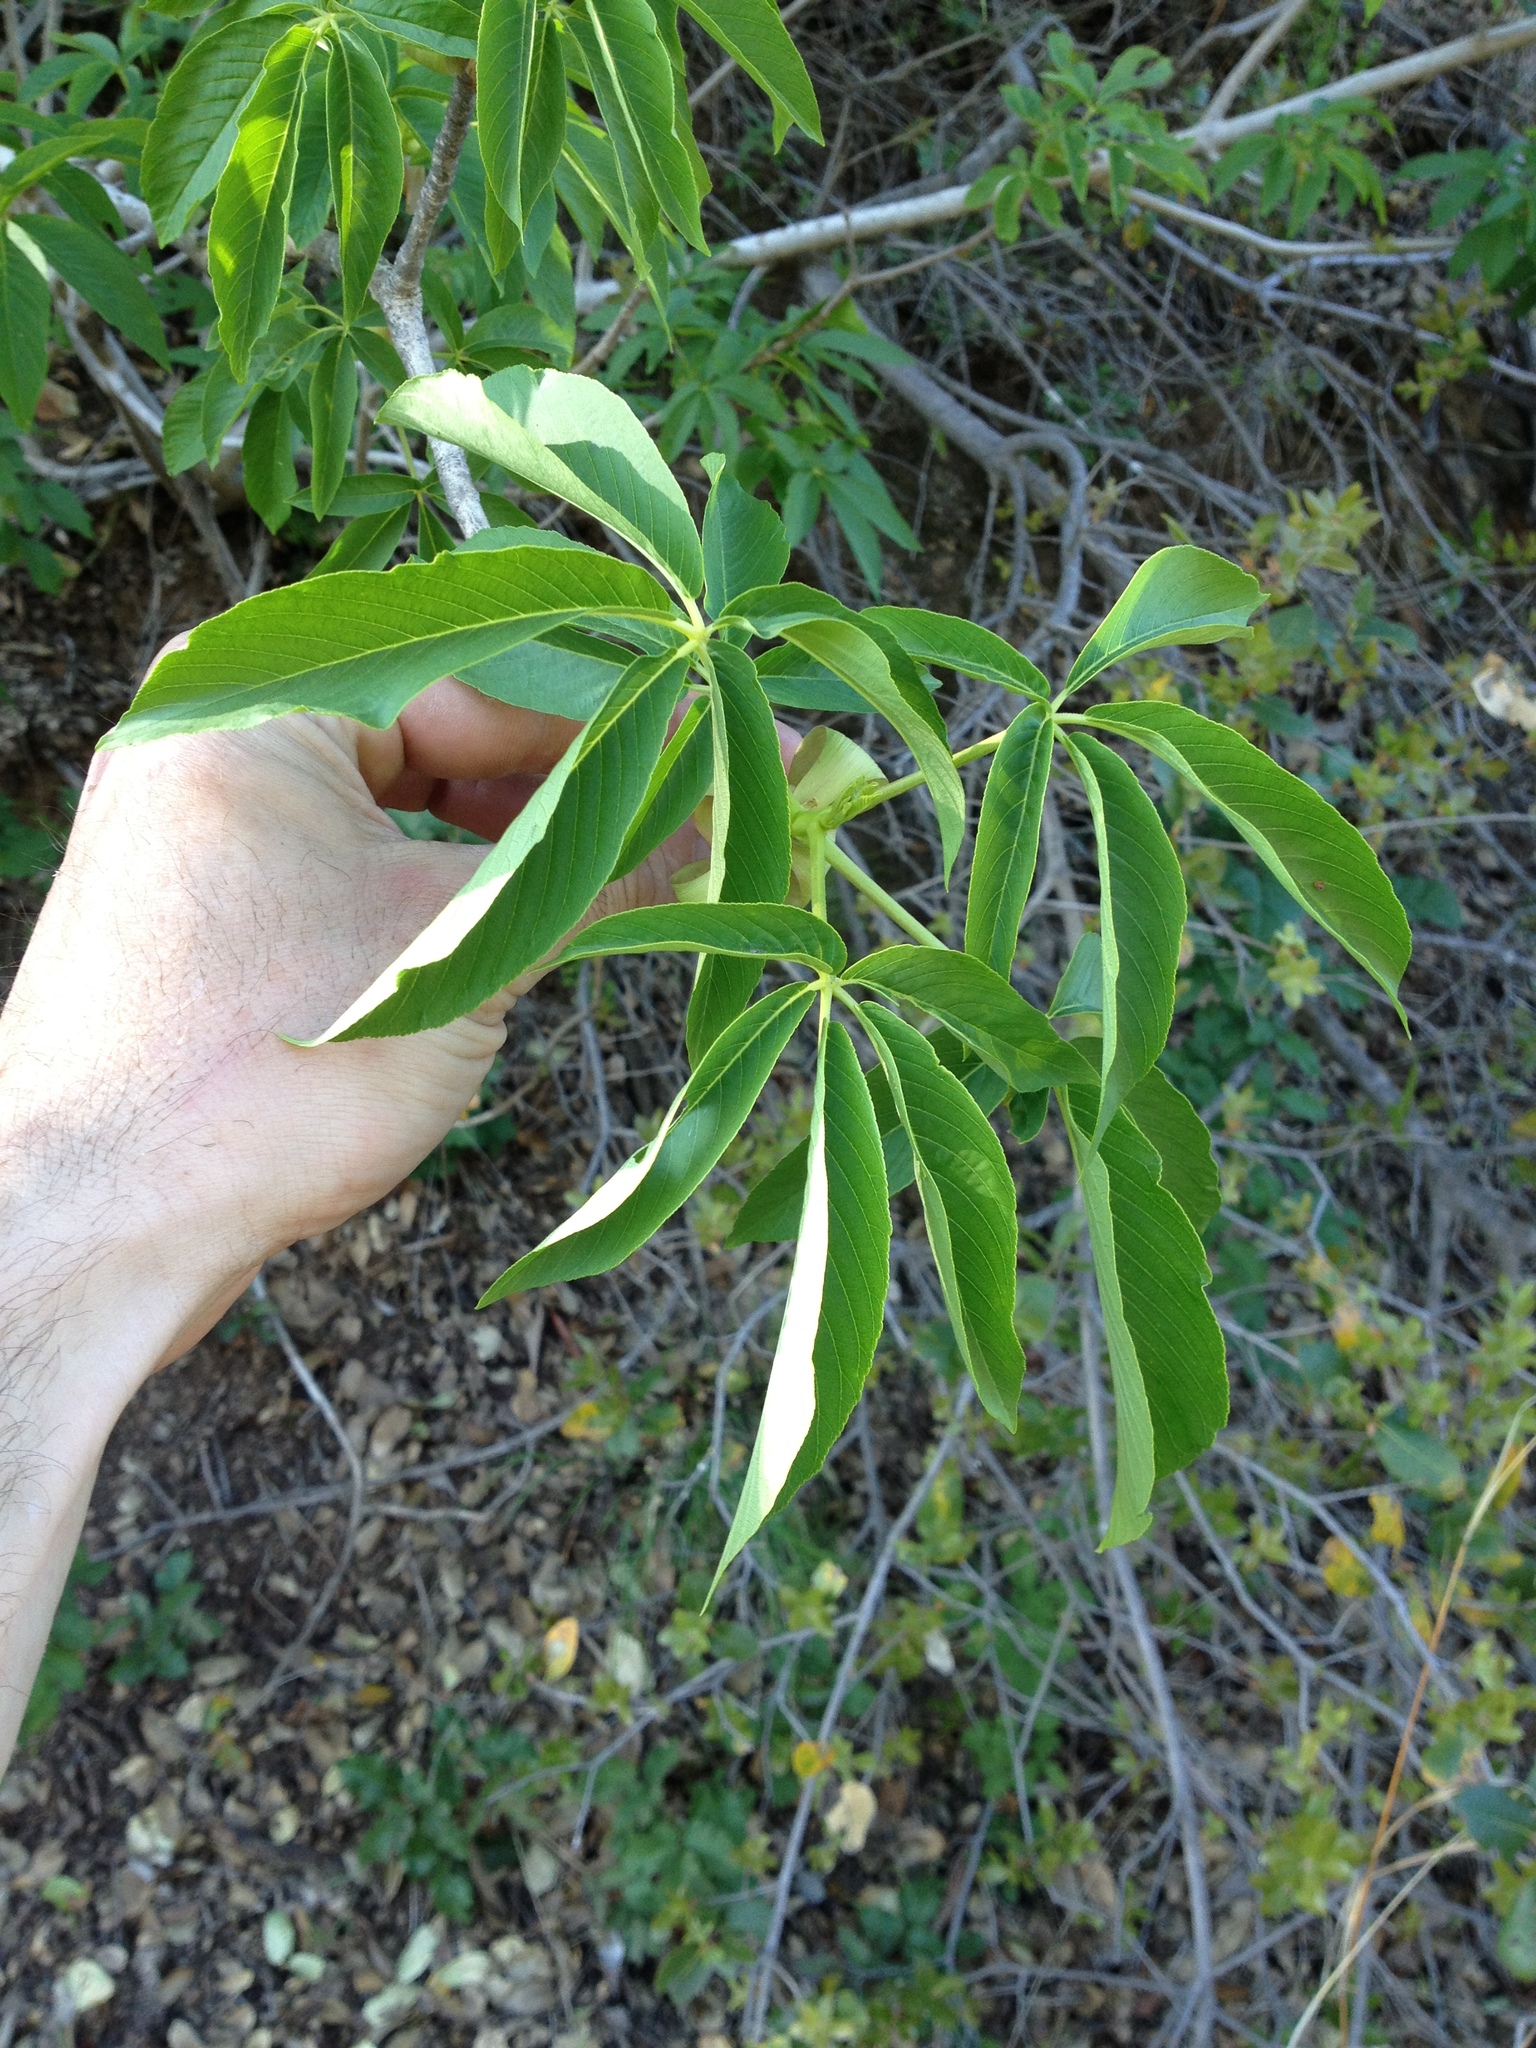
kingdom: Plantae
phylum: Tracheophyta
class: Magnoliopsida
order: Sapindales
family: Sapindaceae
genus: Aesculus
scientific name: Aesculus californica
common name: California buckeye
